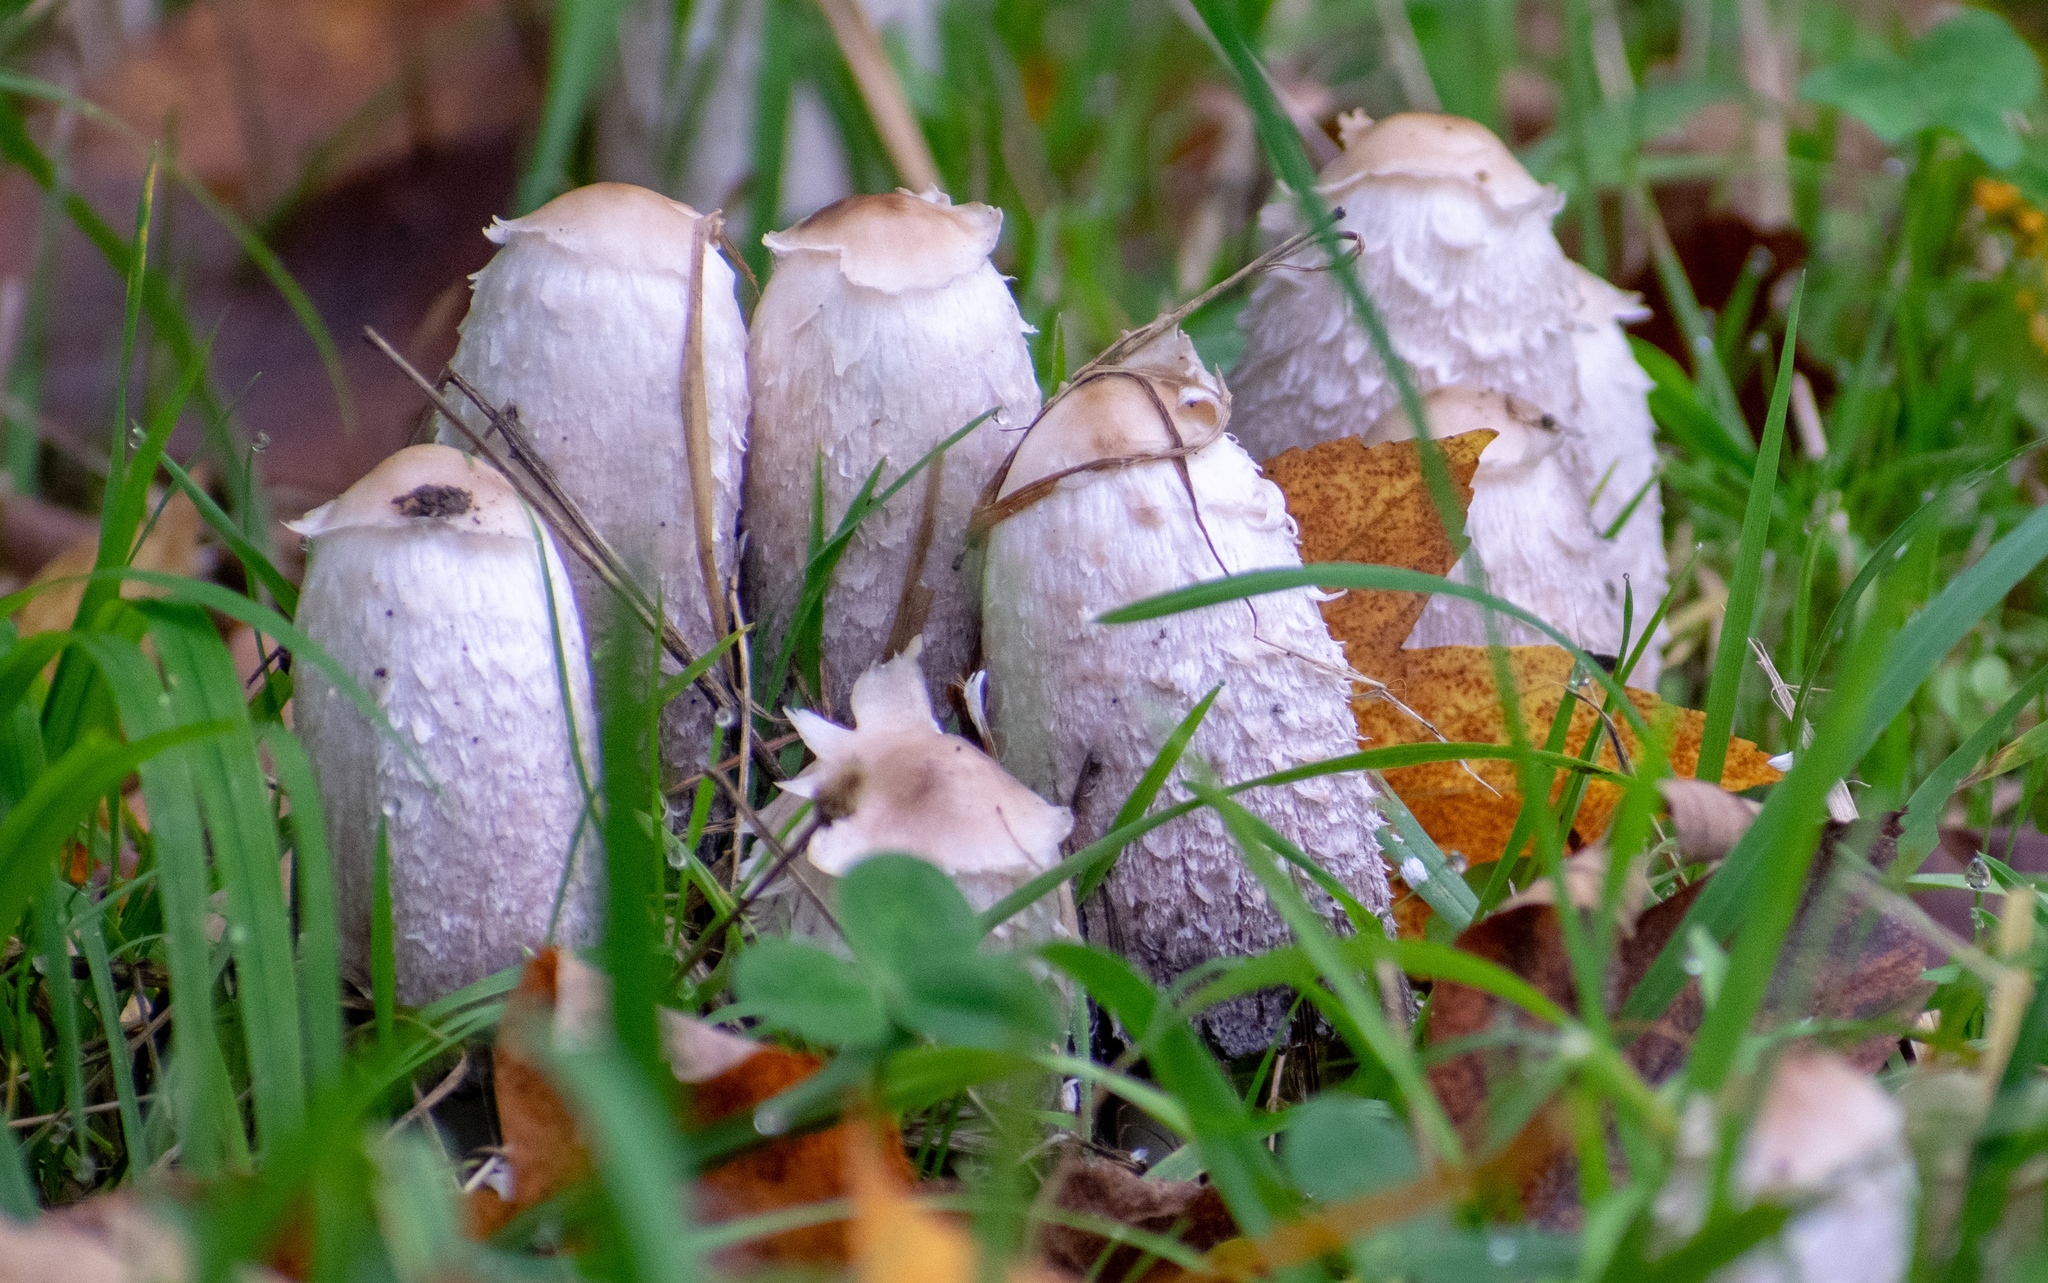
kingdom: Fungi
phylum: Basidiomycota
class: Agaricomycetes
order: Agaricales
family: Agaricaceae
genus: Coprinus
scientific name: Coprinus comatus
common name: Lawyer's wig
